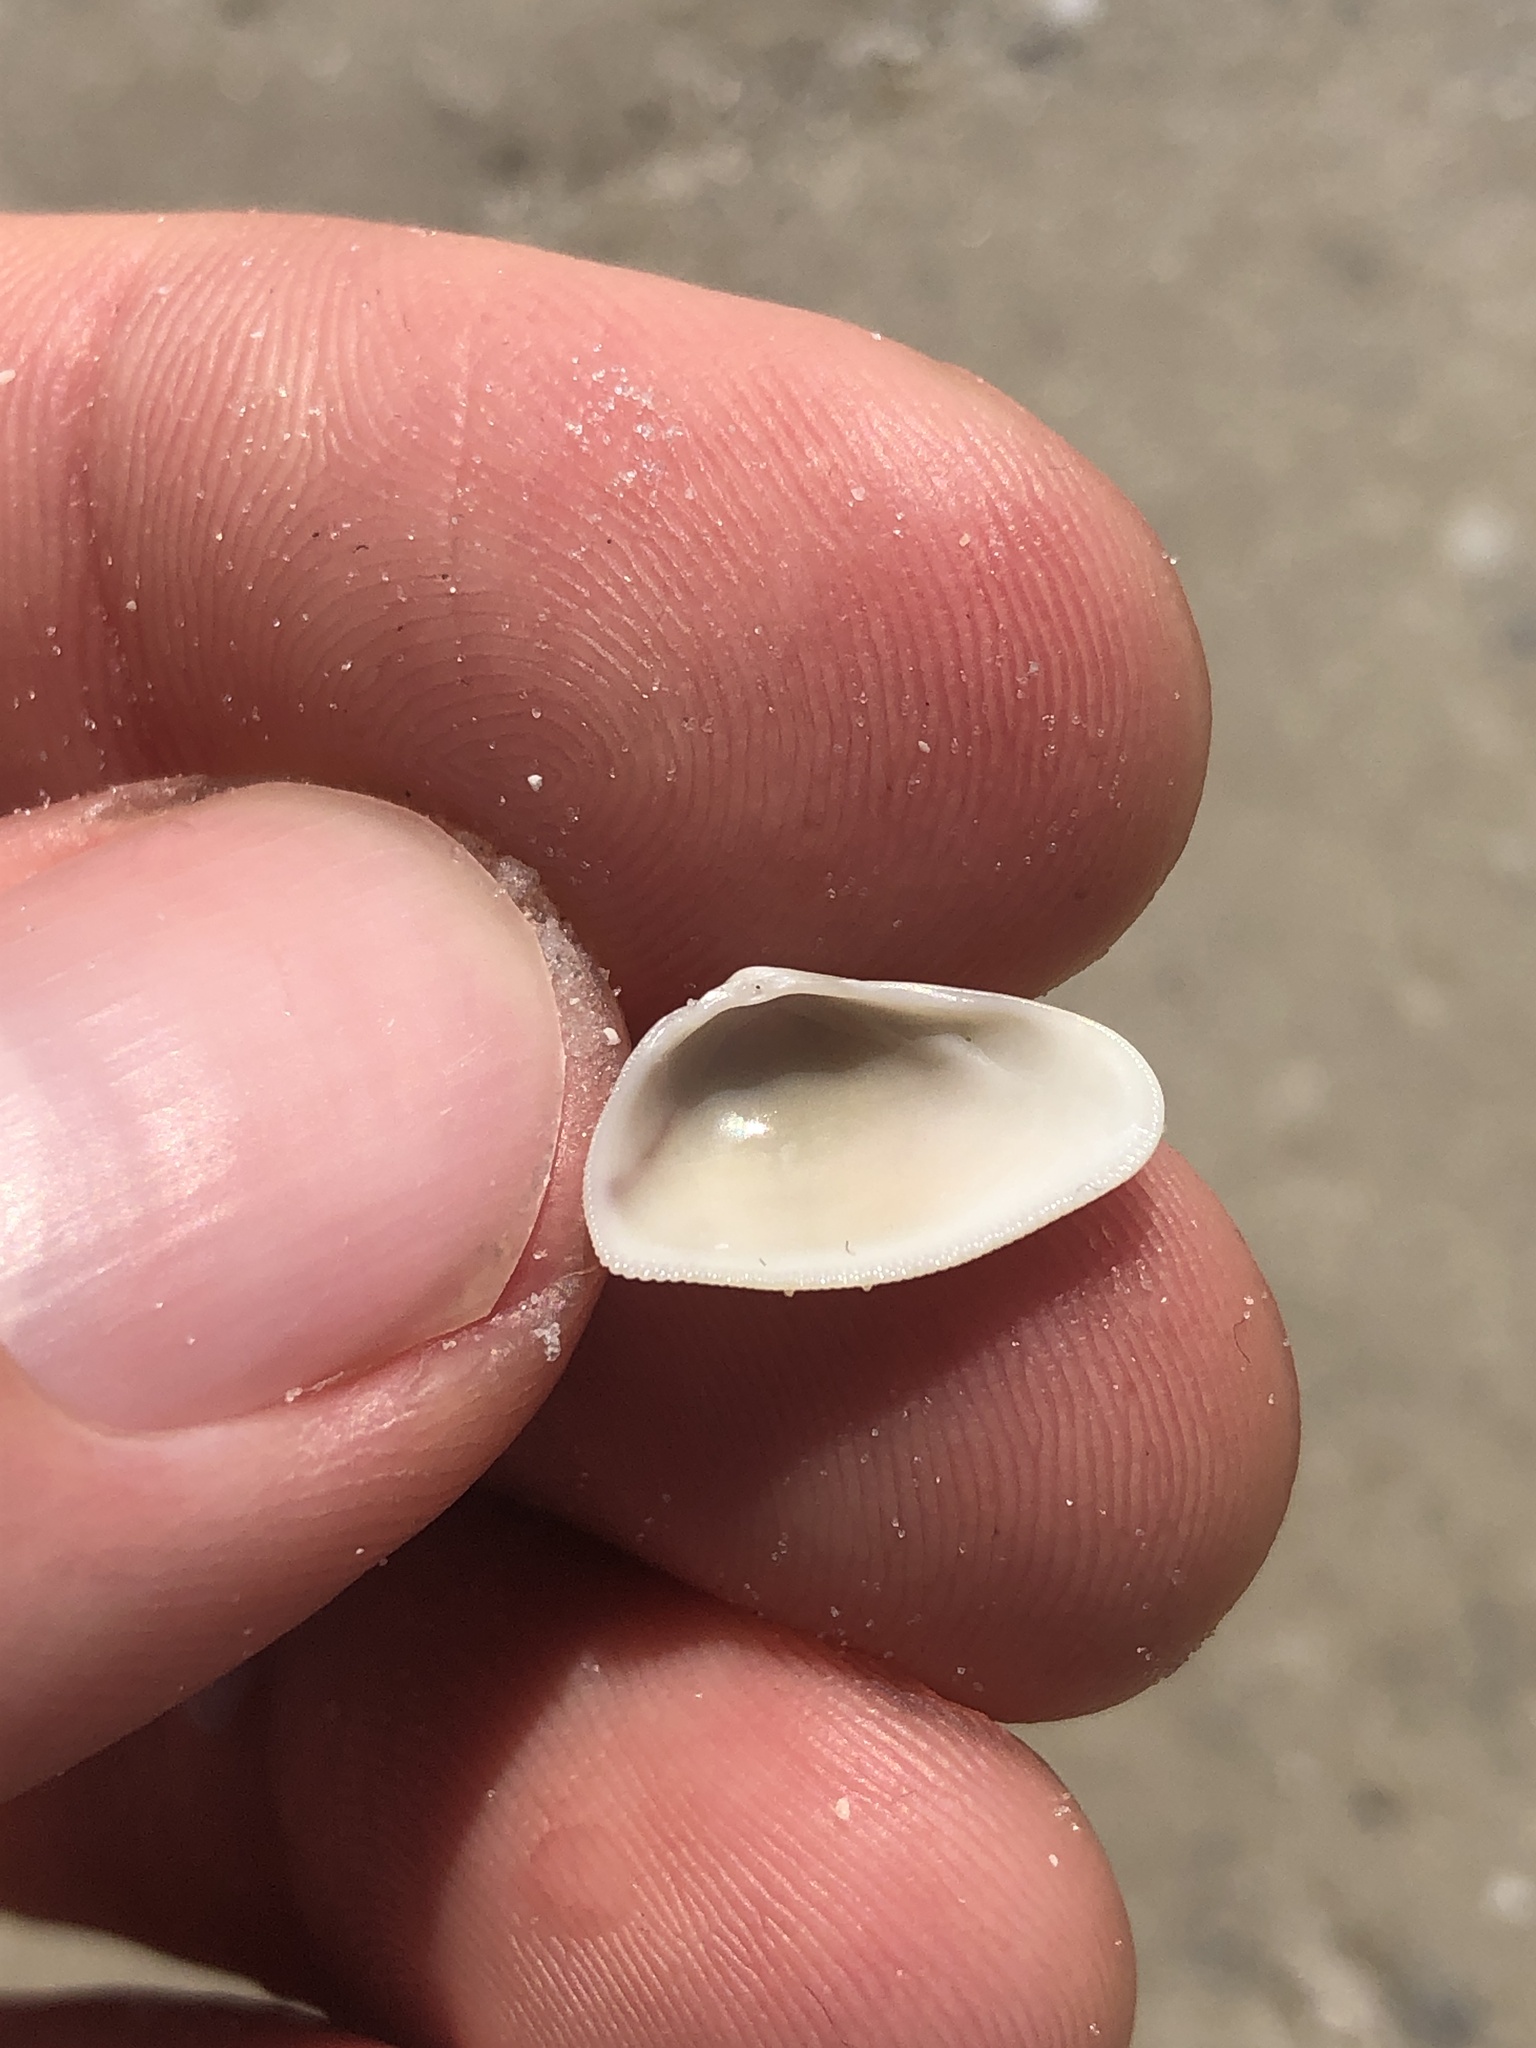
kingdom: Animalia
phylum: Mollusca
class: Bivalvia
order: Cardiida
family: Donacidae
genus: Donax
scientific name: Donax variabilis
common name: Butterfly shell
